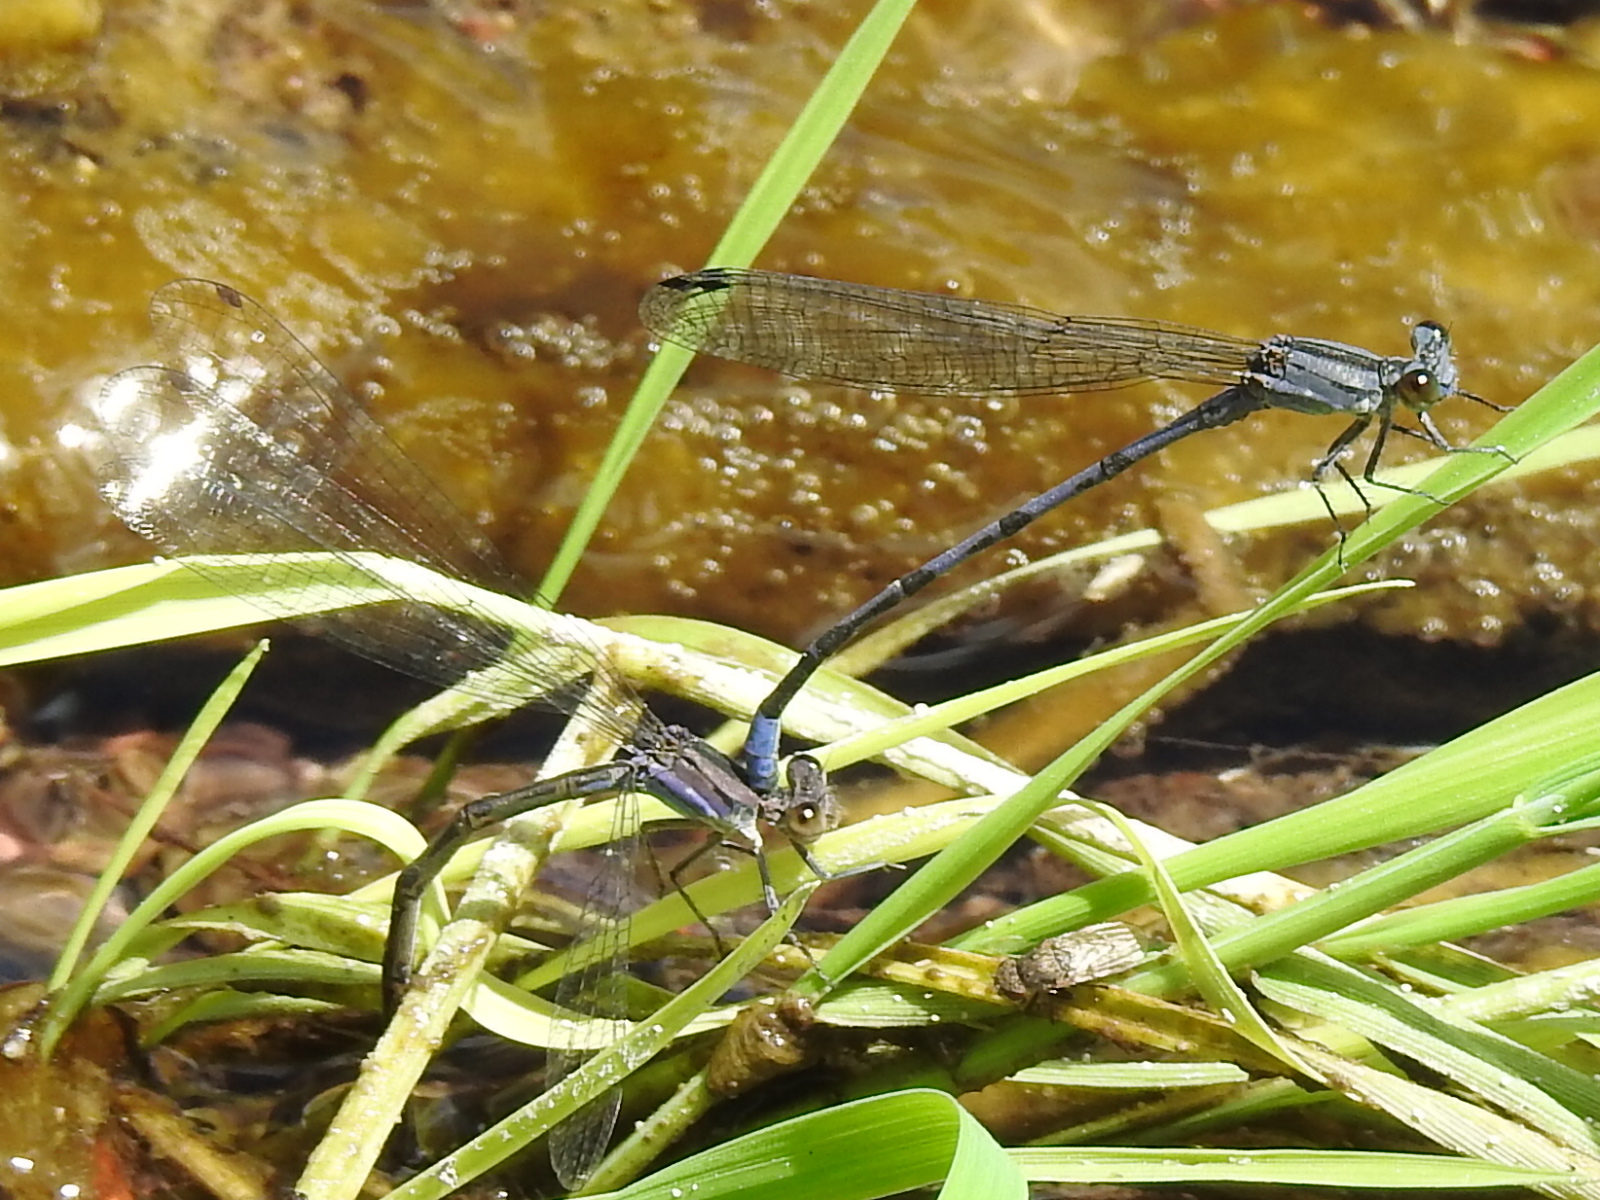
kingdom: Animalia
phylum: Arthropoda
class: Insecta
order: Odonata
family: Coenagrionidae
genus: Argia
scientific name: Argia funebris
